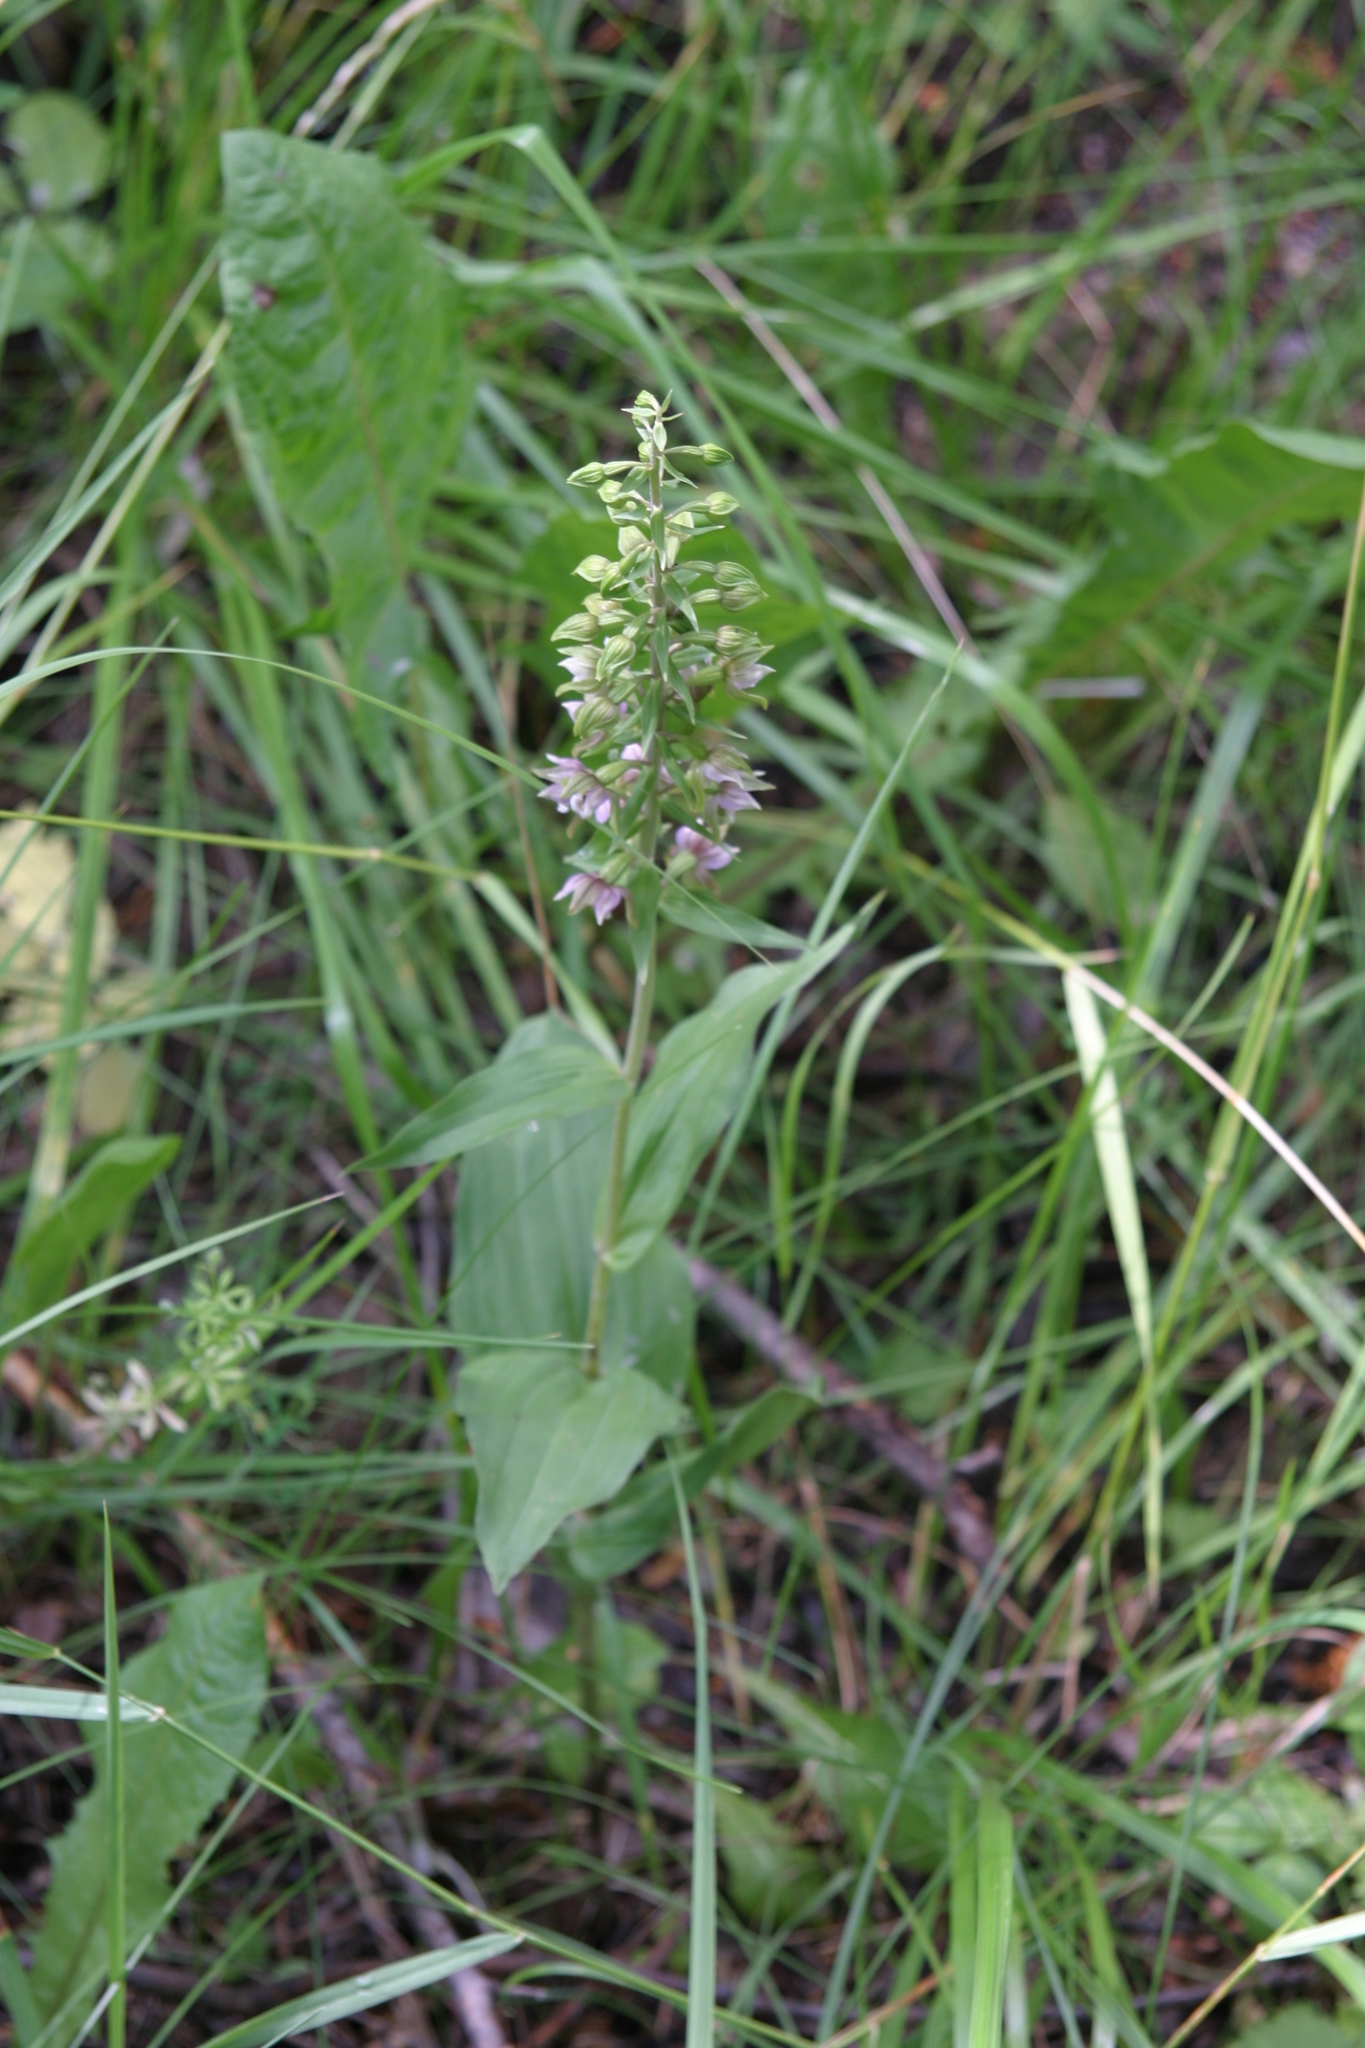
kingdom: Plantae
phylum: Tracheophyta
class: Liliopsida
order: Asparagales
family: Orchidaceae
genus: Epipactis
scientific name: Epipactis helleborine
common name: Broad-leaved helleborine
